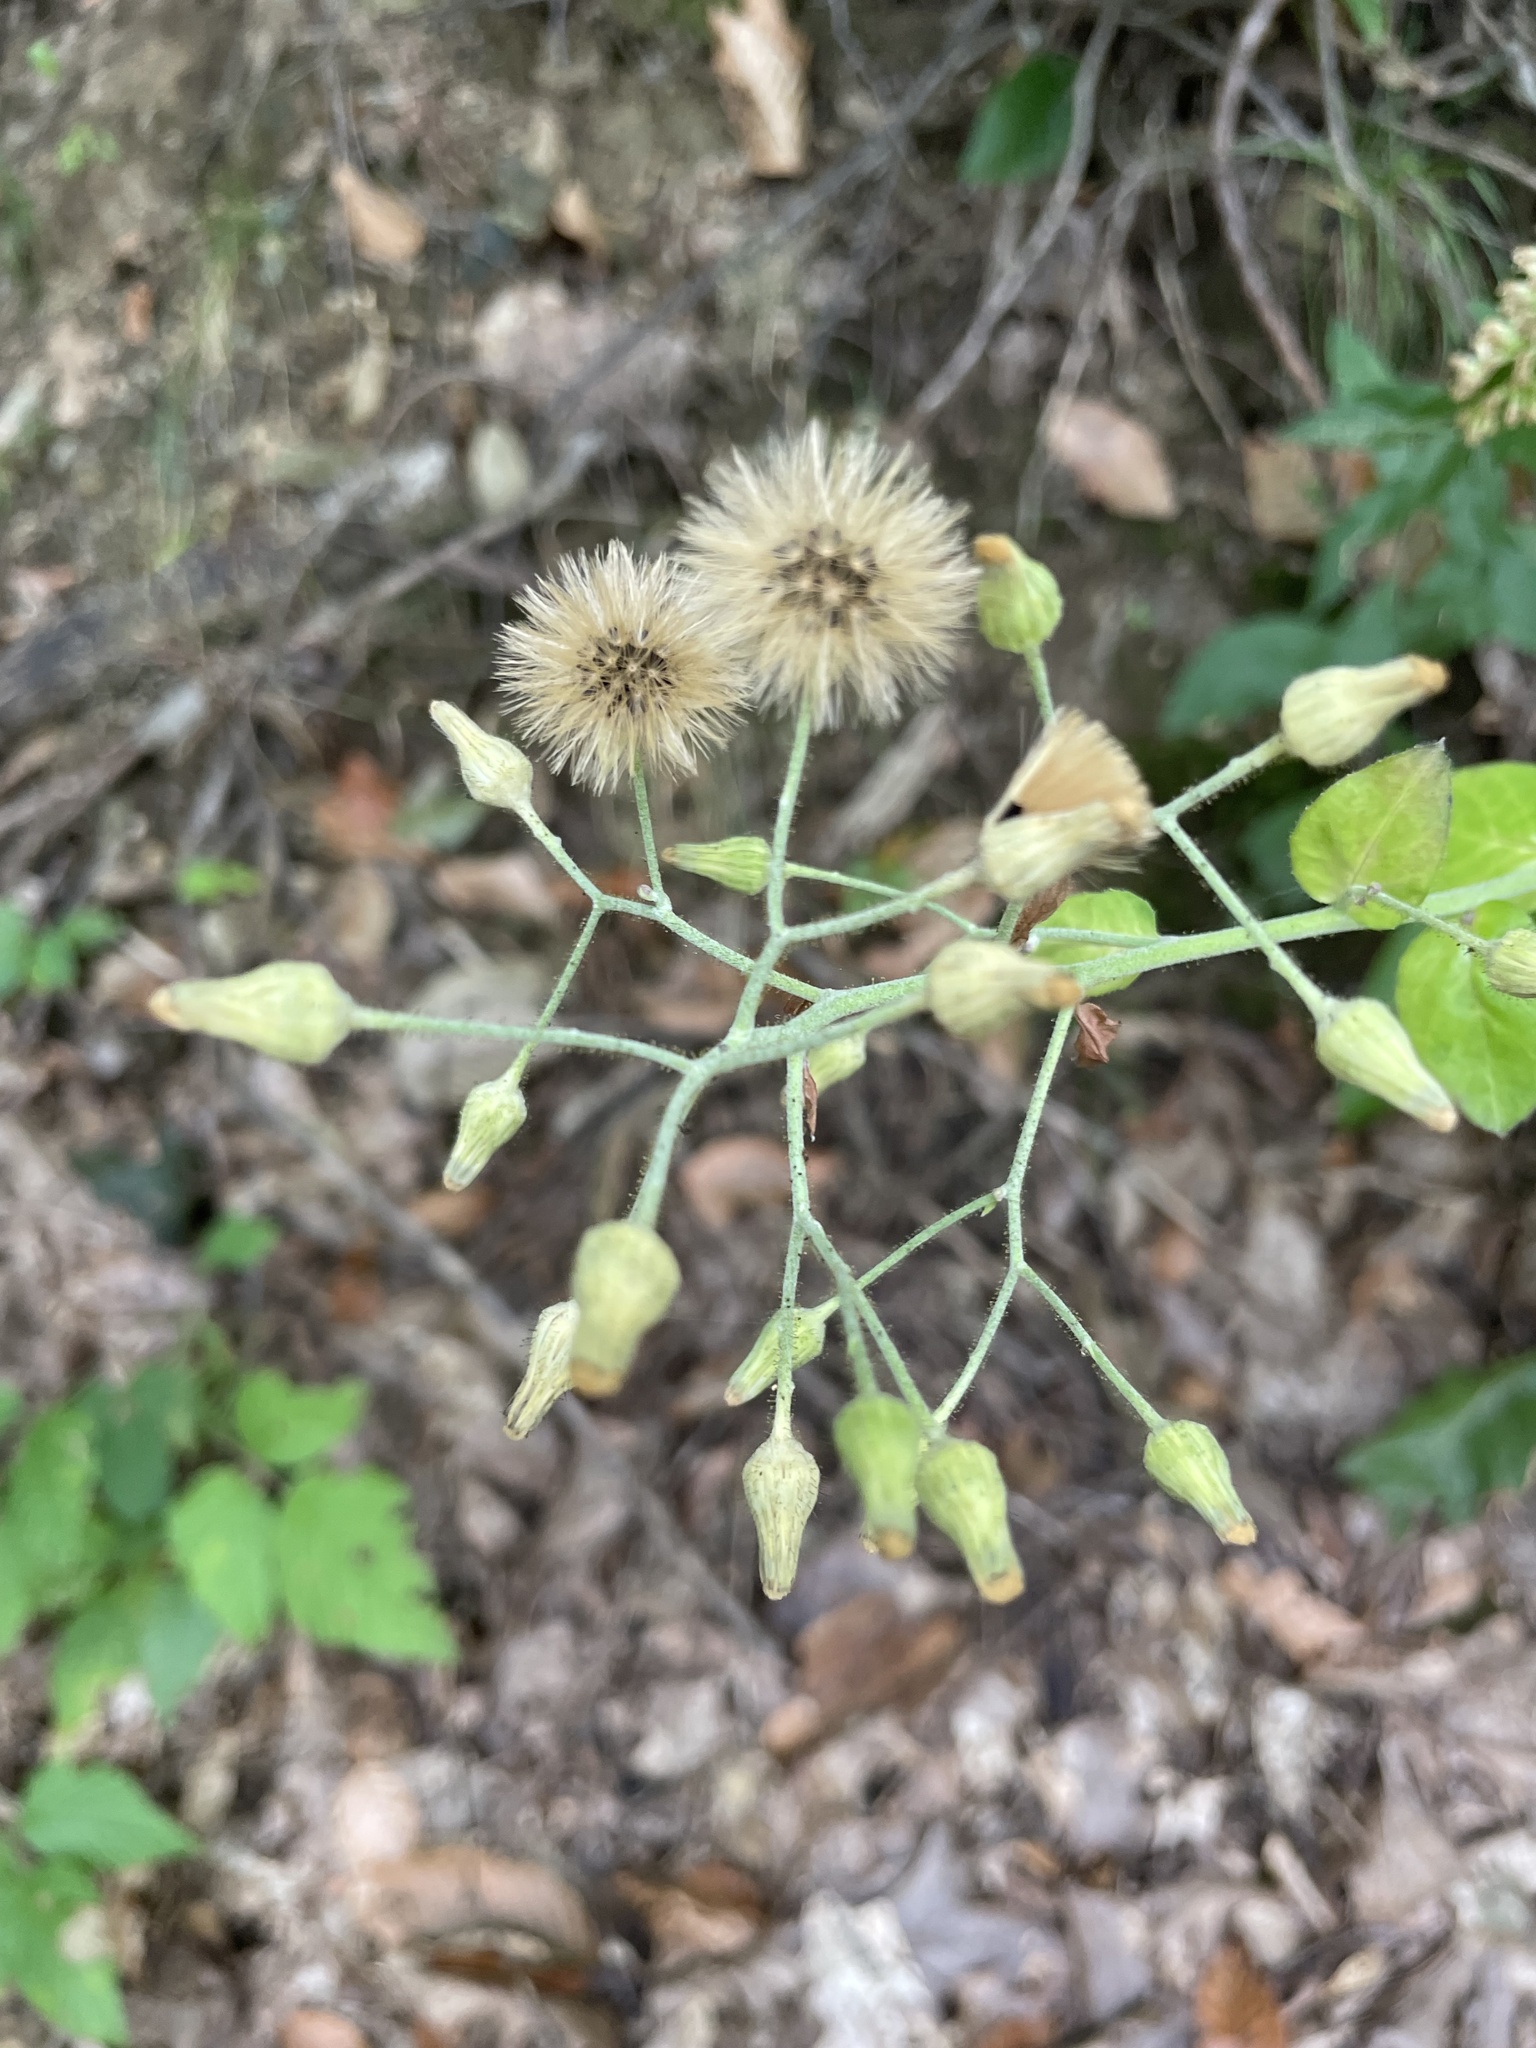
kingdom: Plantae
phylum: Tracheophyta
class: Magnoliopsida
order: Asterales
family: Asteraceae
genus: Hieracium
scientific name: Hieracium scabrum
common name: Rough hawkweed
